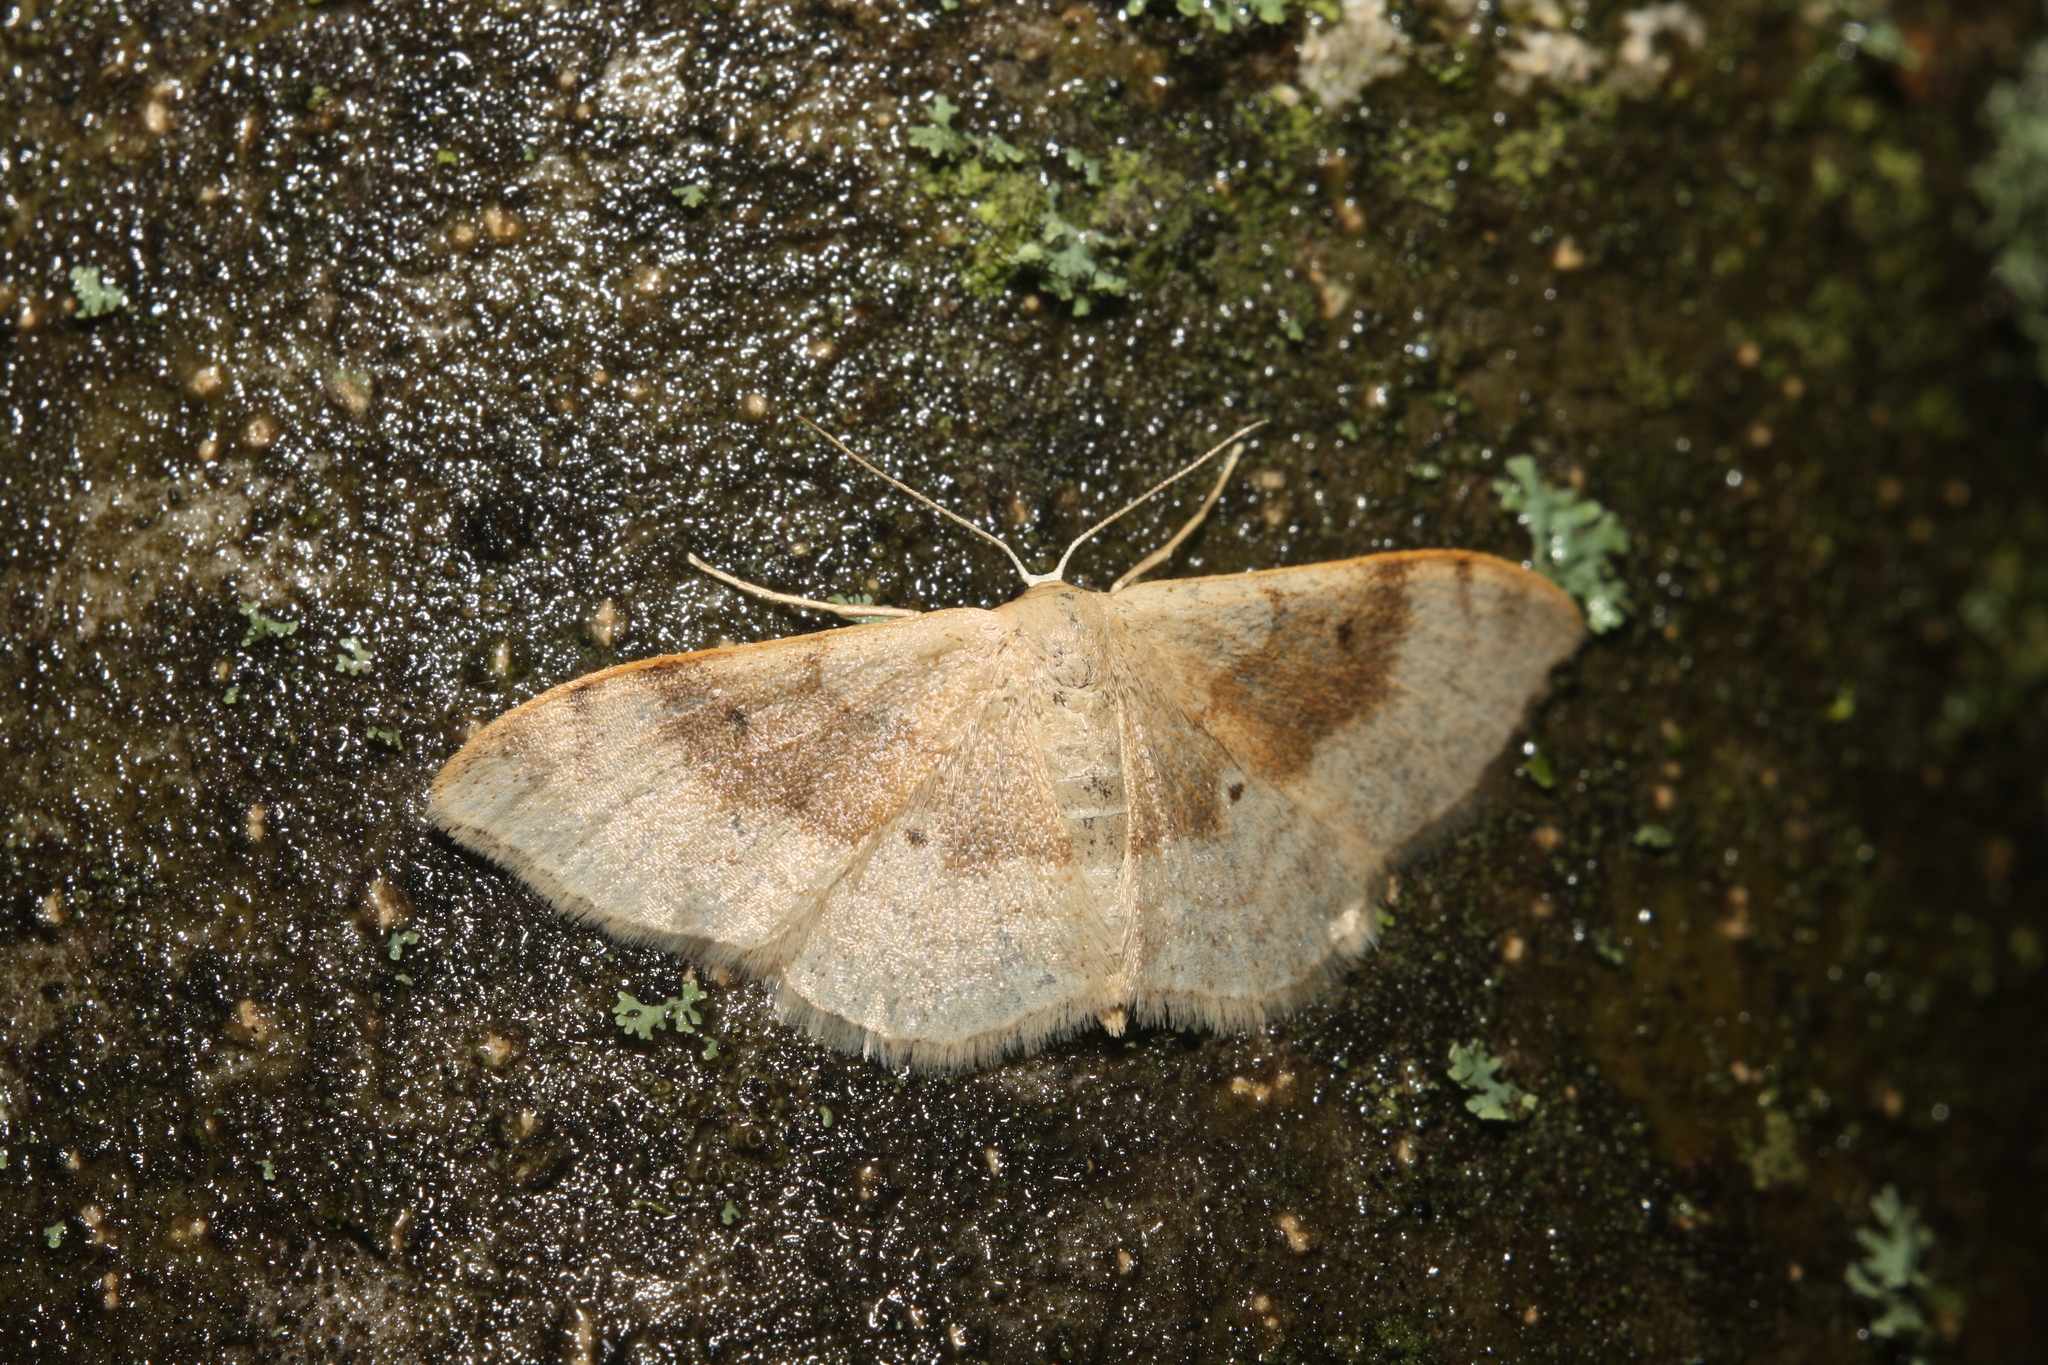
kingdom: Animalia
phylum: Arthropoda
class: Insecta
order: Lepidoptera
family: Geometridae
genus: Idaea
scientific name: Idaea degeneraria
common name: Portland ribbon wave
